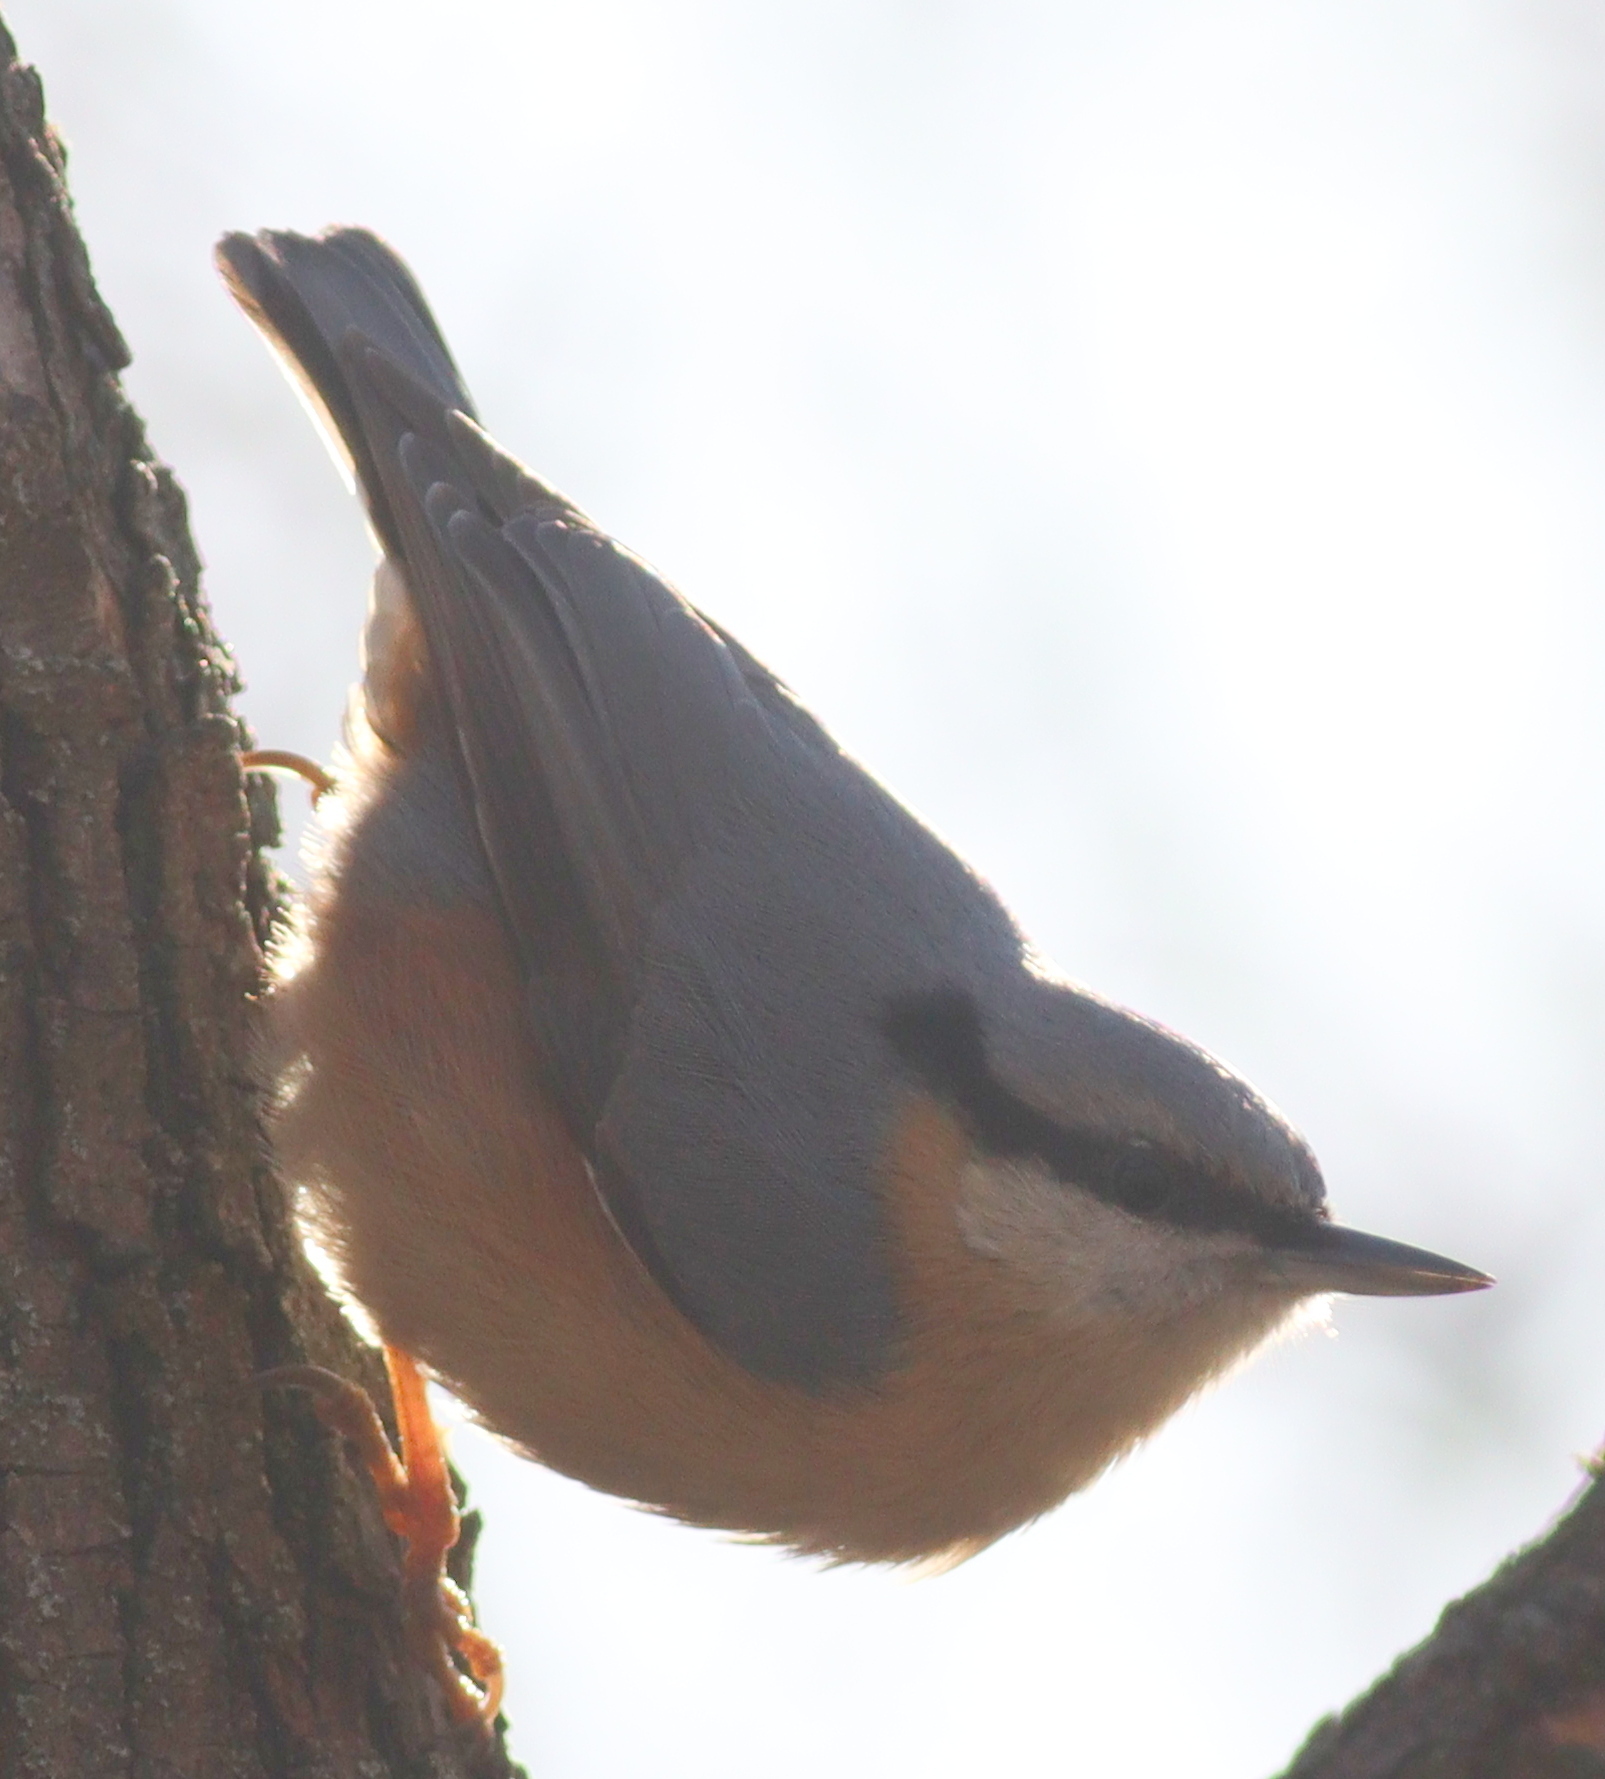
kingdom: Animalia
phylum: Chordata
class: Aves
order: Passeriformes
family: Sittidae
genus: Sitta
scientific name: Sitta europaea
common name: Eurasian nuthatch
